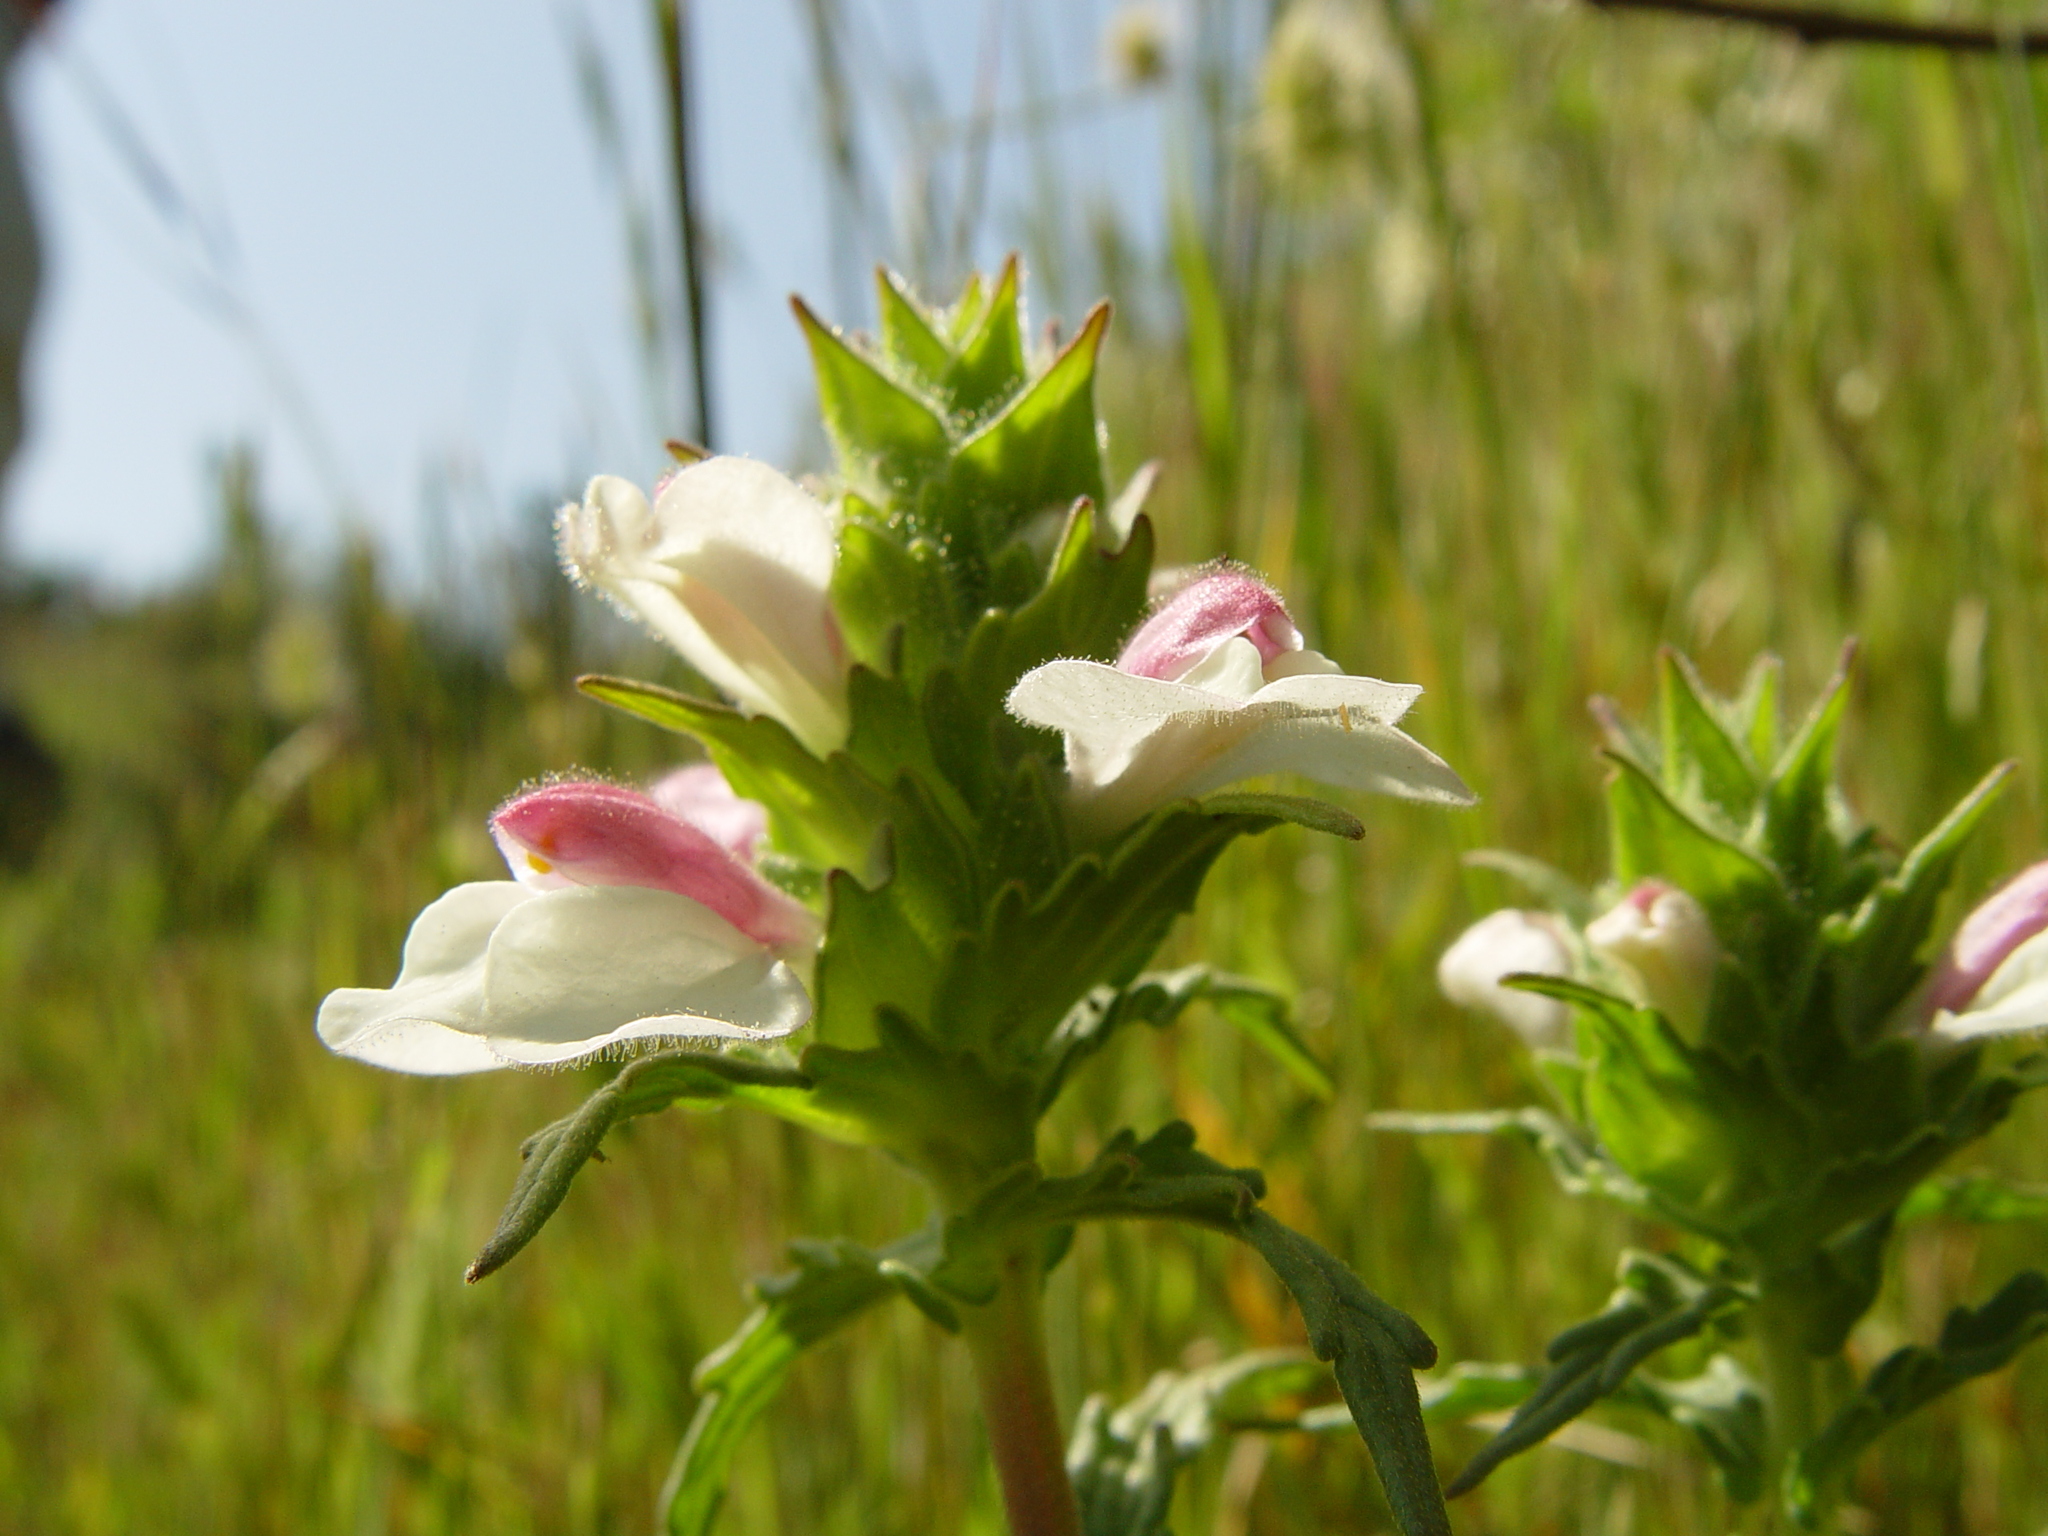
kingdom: Plantae
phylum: Tracheophyta
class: Magnoliopsida
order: Lamiales
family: Orobanchaceae
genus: Bellardia
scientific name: Bellardia trixago
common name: Mediterranean lineseed
